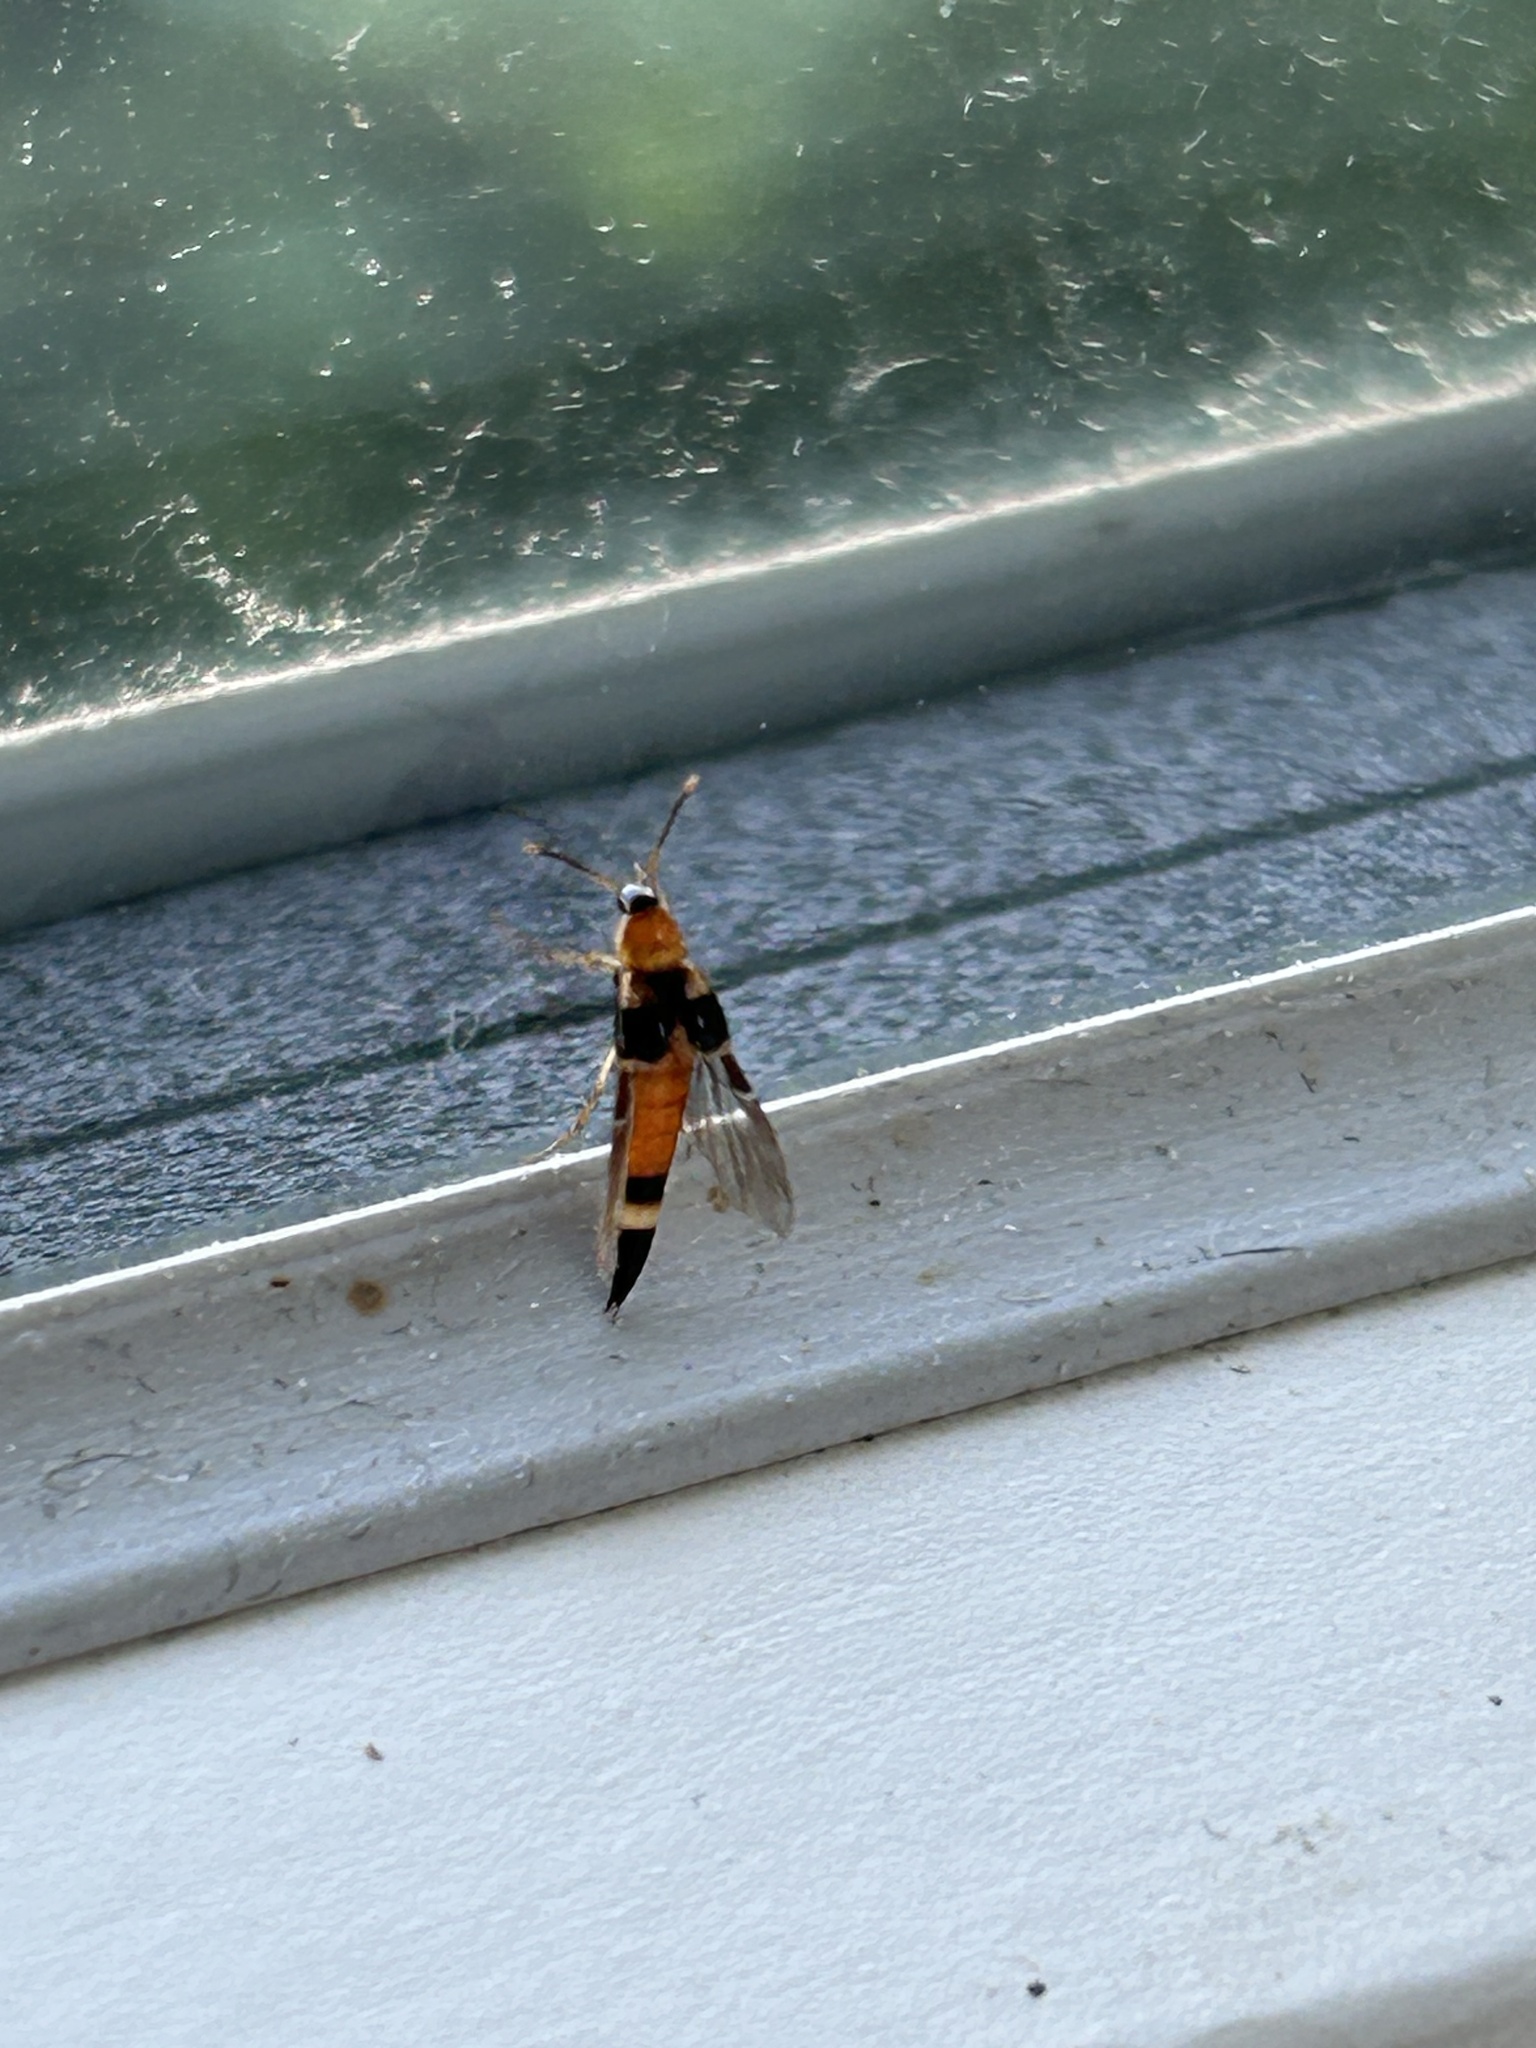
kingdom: Animalia
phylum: Arthropoda
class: Insecta
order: Coleoptera
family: Staphylinidae
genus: Bobitobus
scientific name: Bobitobus lunulatus
